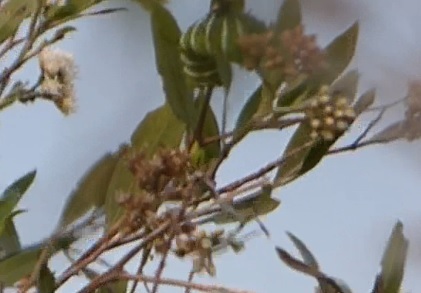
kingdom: Animalia
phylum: Arthropoda
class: Insecta
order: Lepidoptera
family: Saturniidae
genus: Rothschildia
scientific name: Rothschildia jacobaeae
